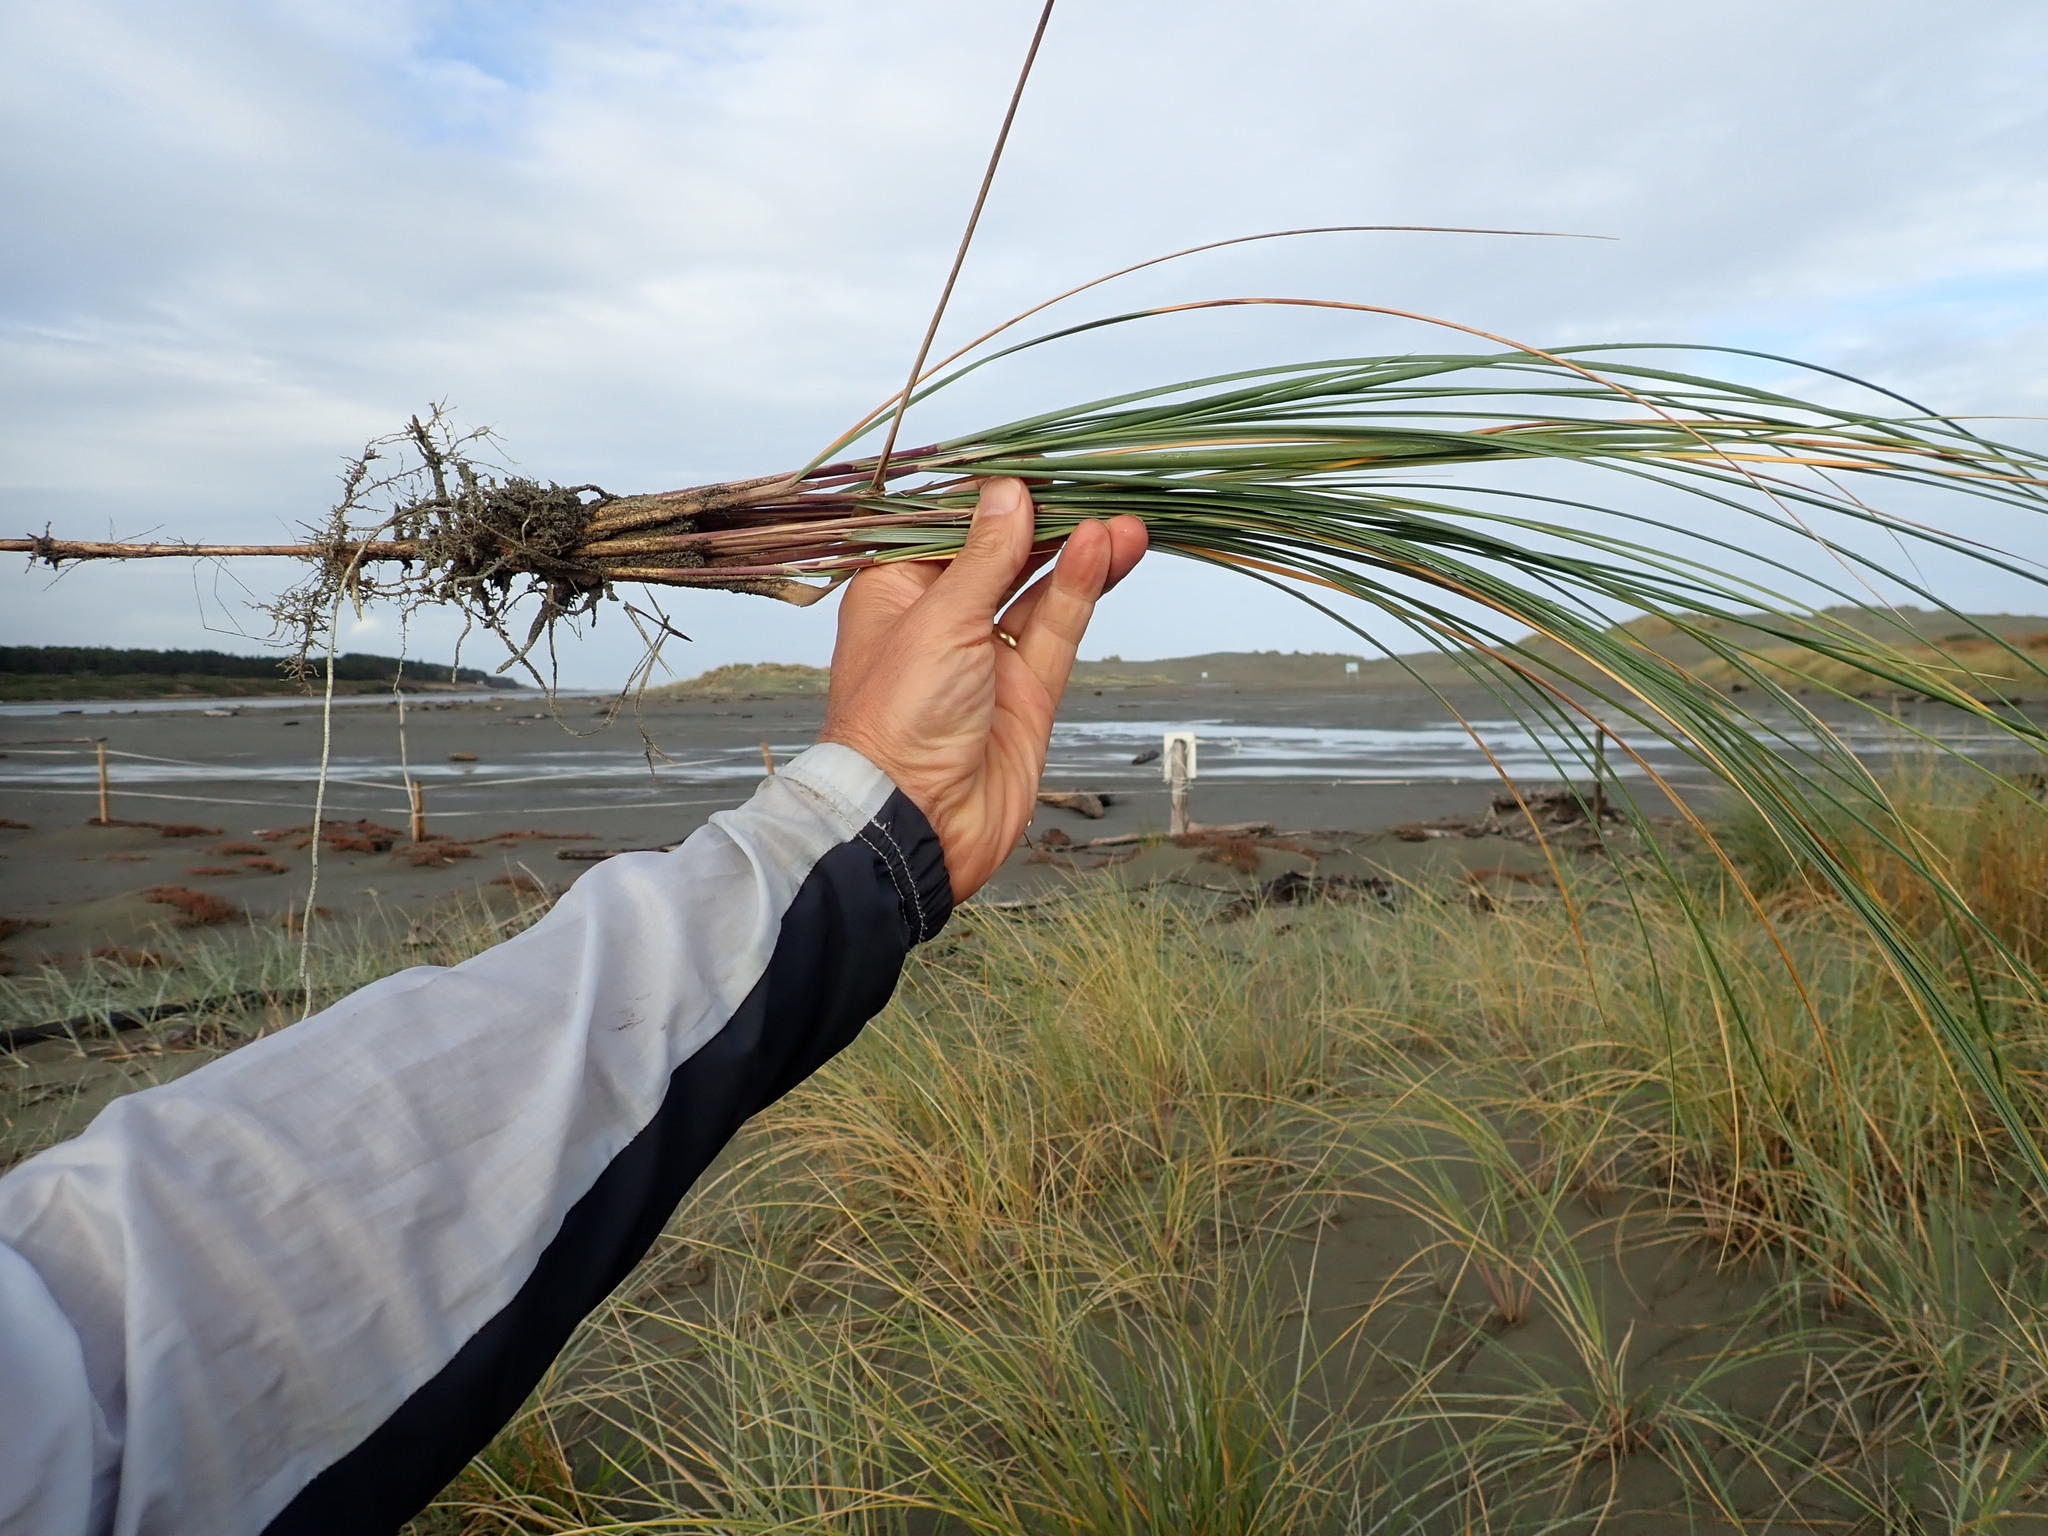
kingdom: Plantae
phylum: Tracheophyta
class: Liliopsida
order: Poales
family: Poaceae
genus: Calamagrostis
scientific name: Calamagrostis arenaria
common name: European beachgrass
